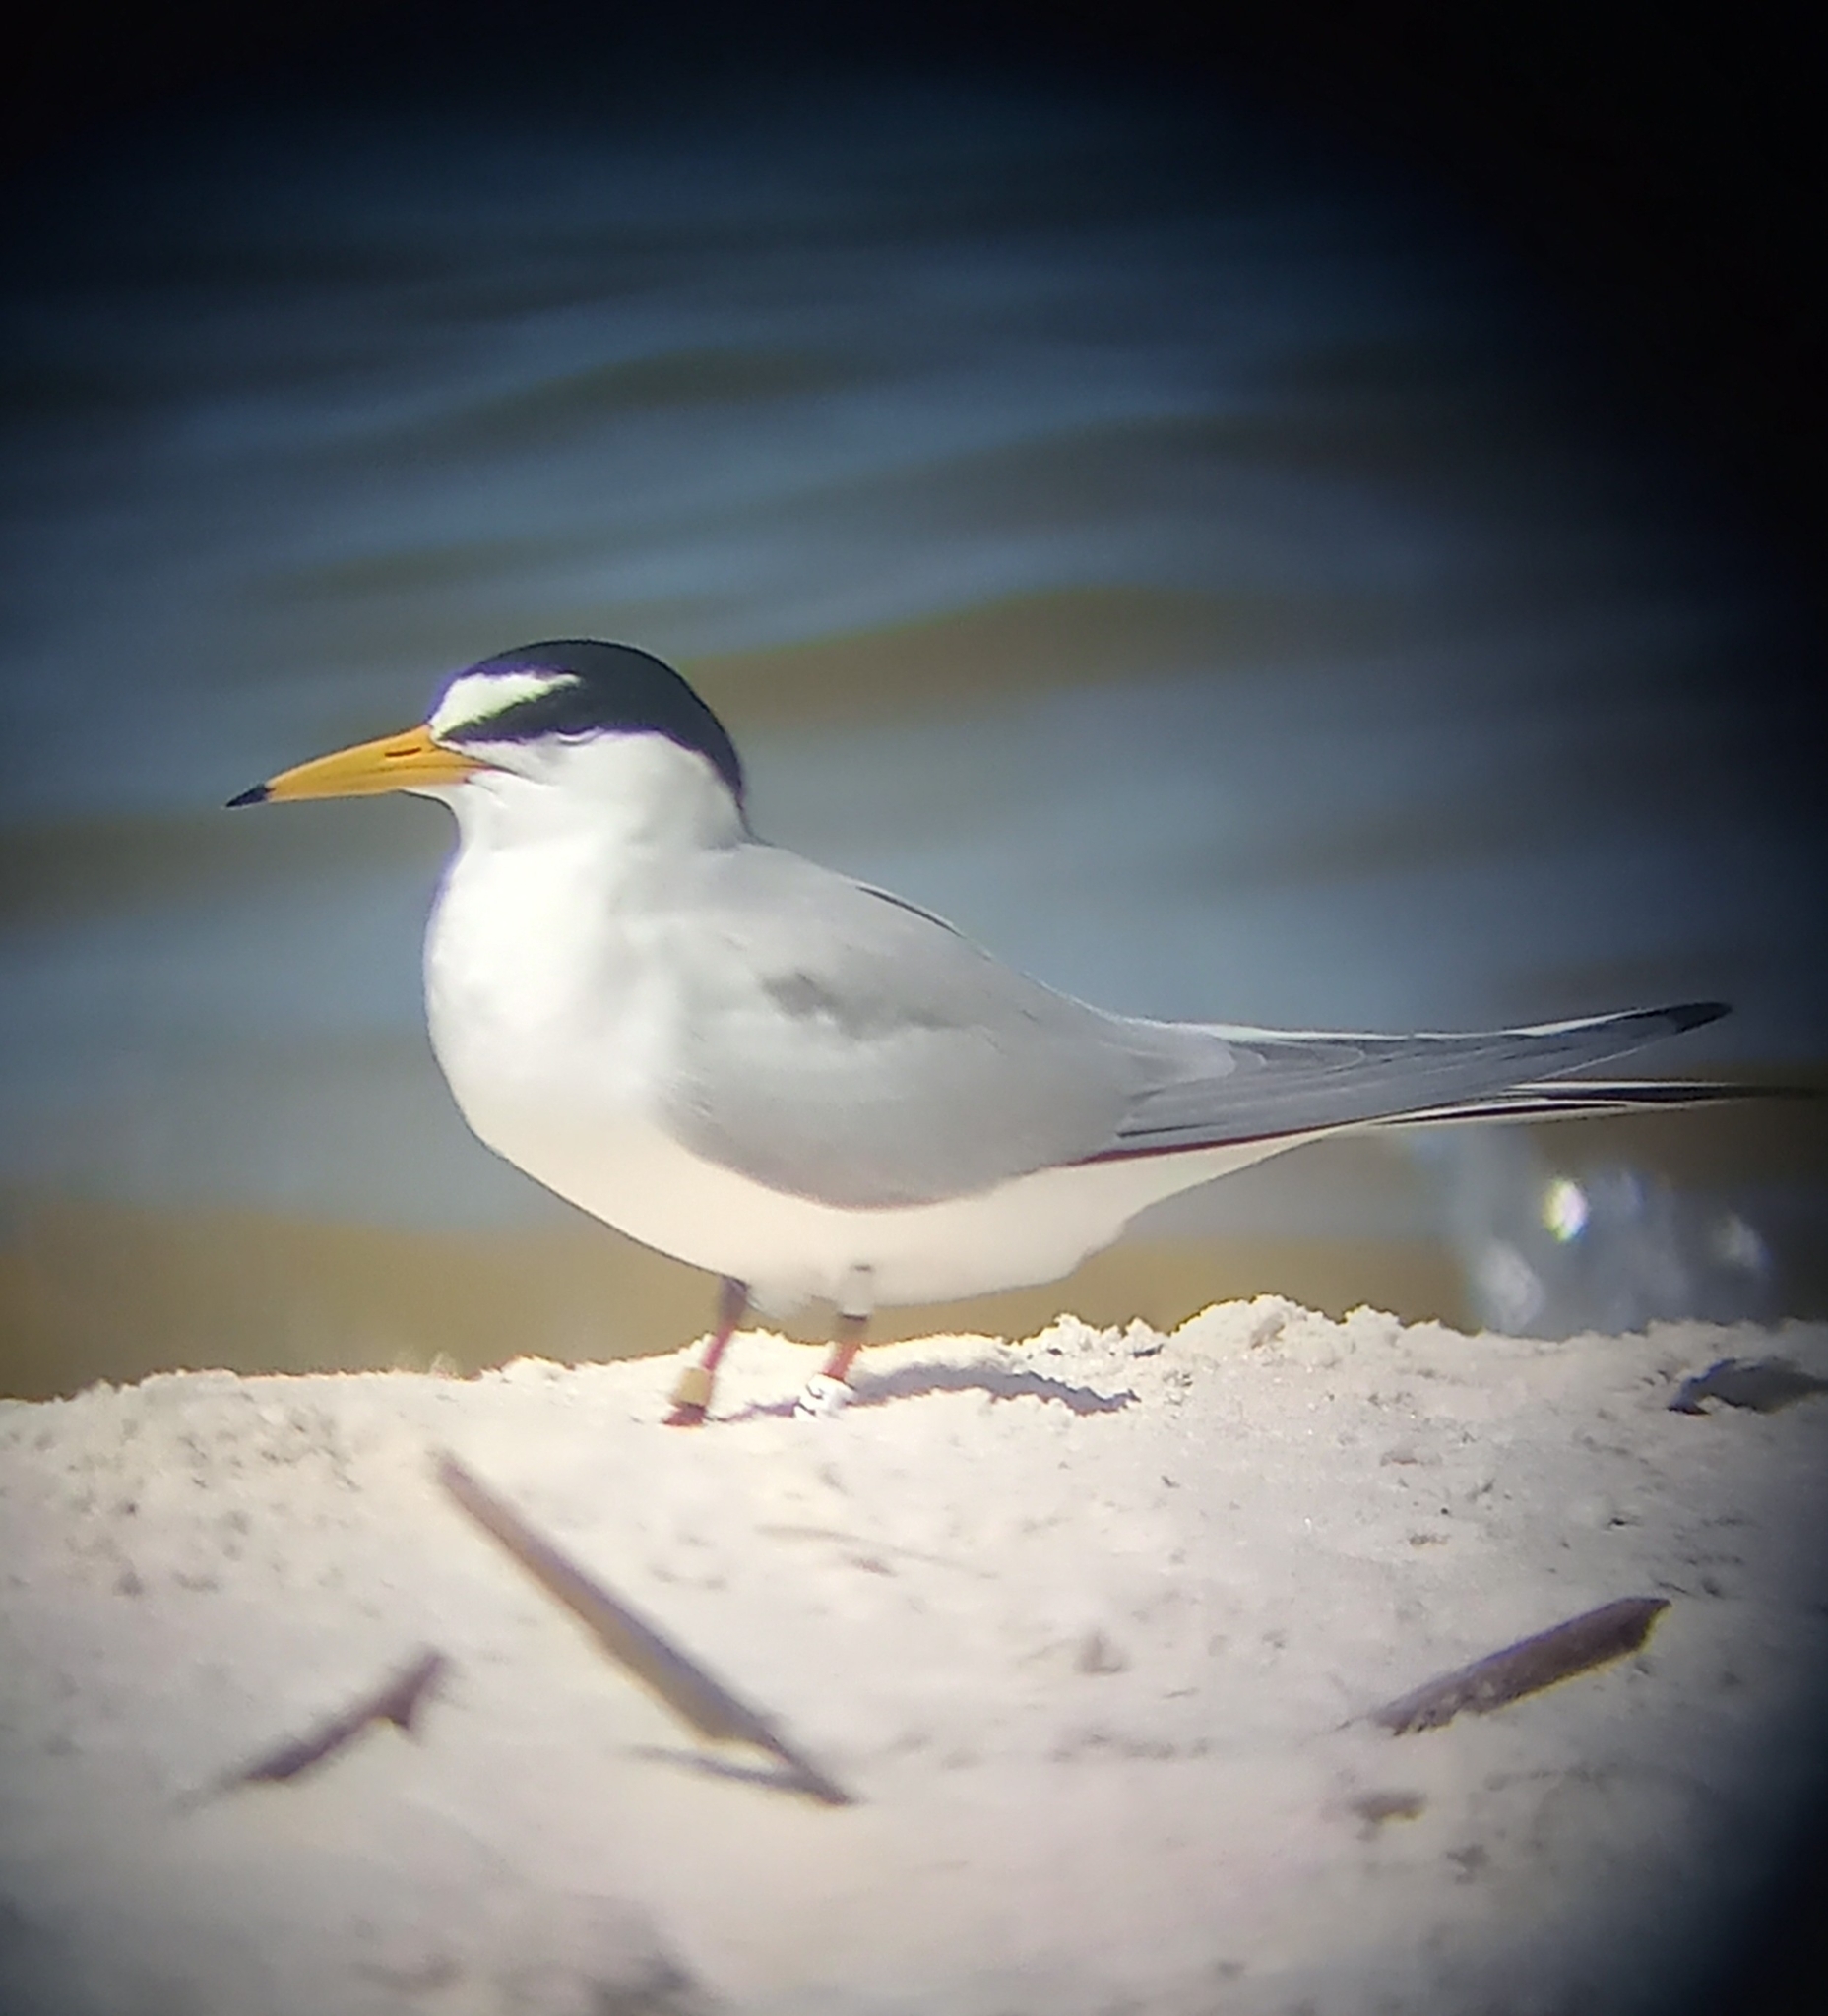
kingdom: Animalia
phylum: Chordata
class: Aves
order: Charadriiformes
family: Laridae
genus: Sternula
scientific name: Sternula antillarum
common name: Least tern
